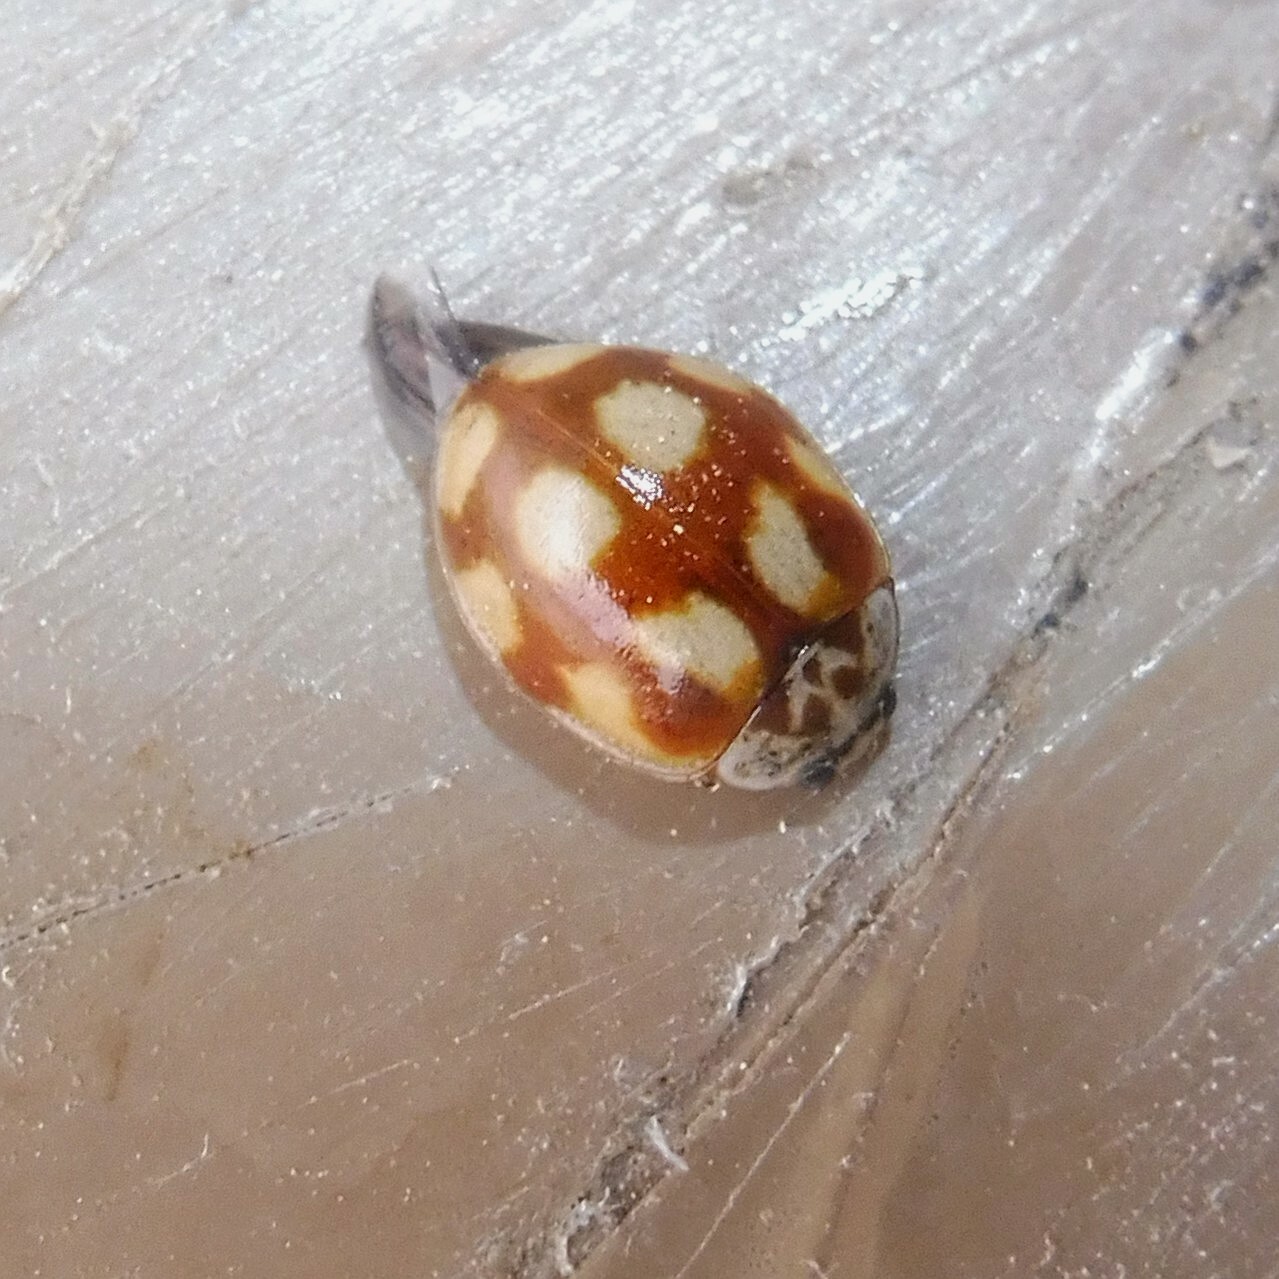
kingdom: Animalia
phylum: Arthropoda
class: Insecta
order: Coleoptera
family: Coccinellidae
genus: Adalia
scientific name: Adalia decempunctata
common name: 10-spot ladybird
